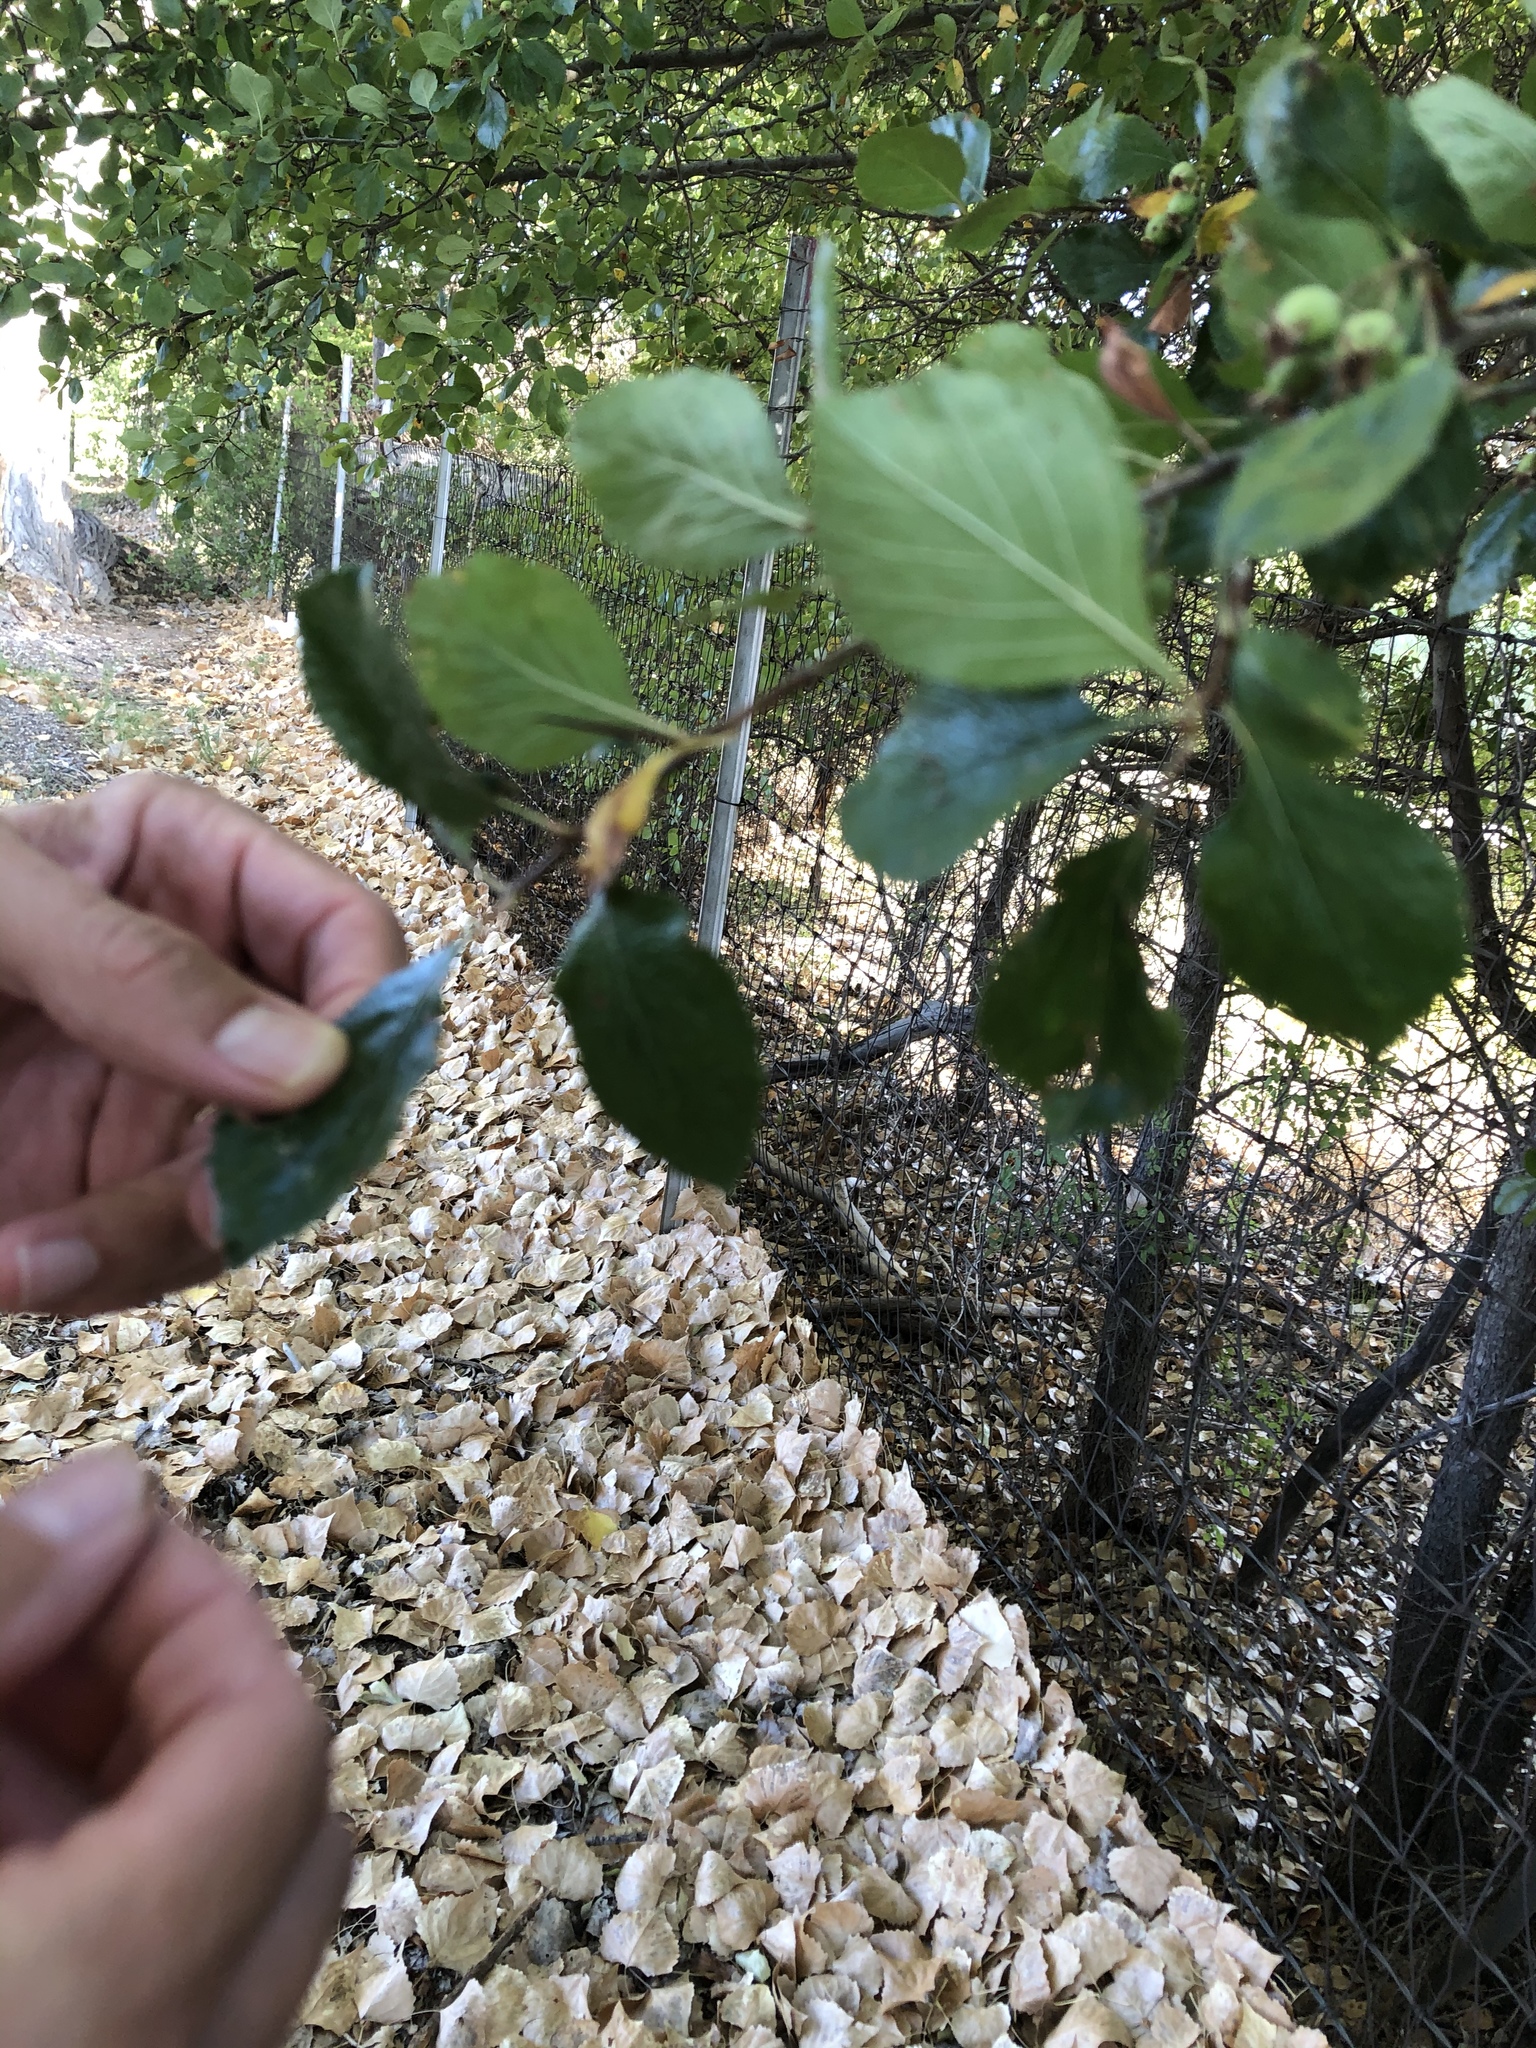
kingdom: Plantae
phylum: Tracheophyta
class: Magnoliopsida
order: Rosales
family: Rosaceae
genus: Crataegus
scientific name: Crataegus tracyi
